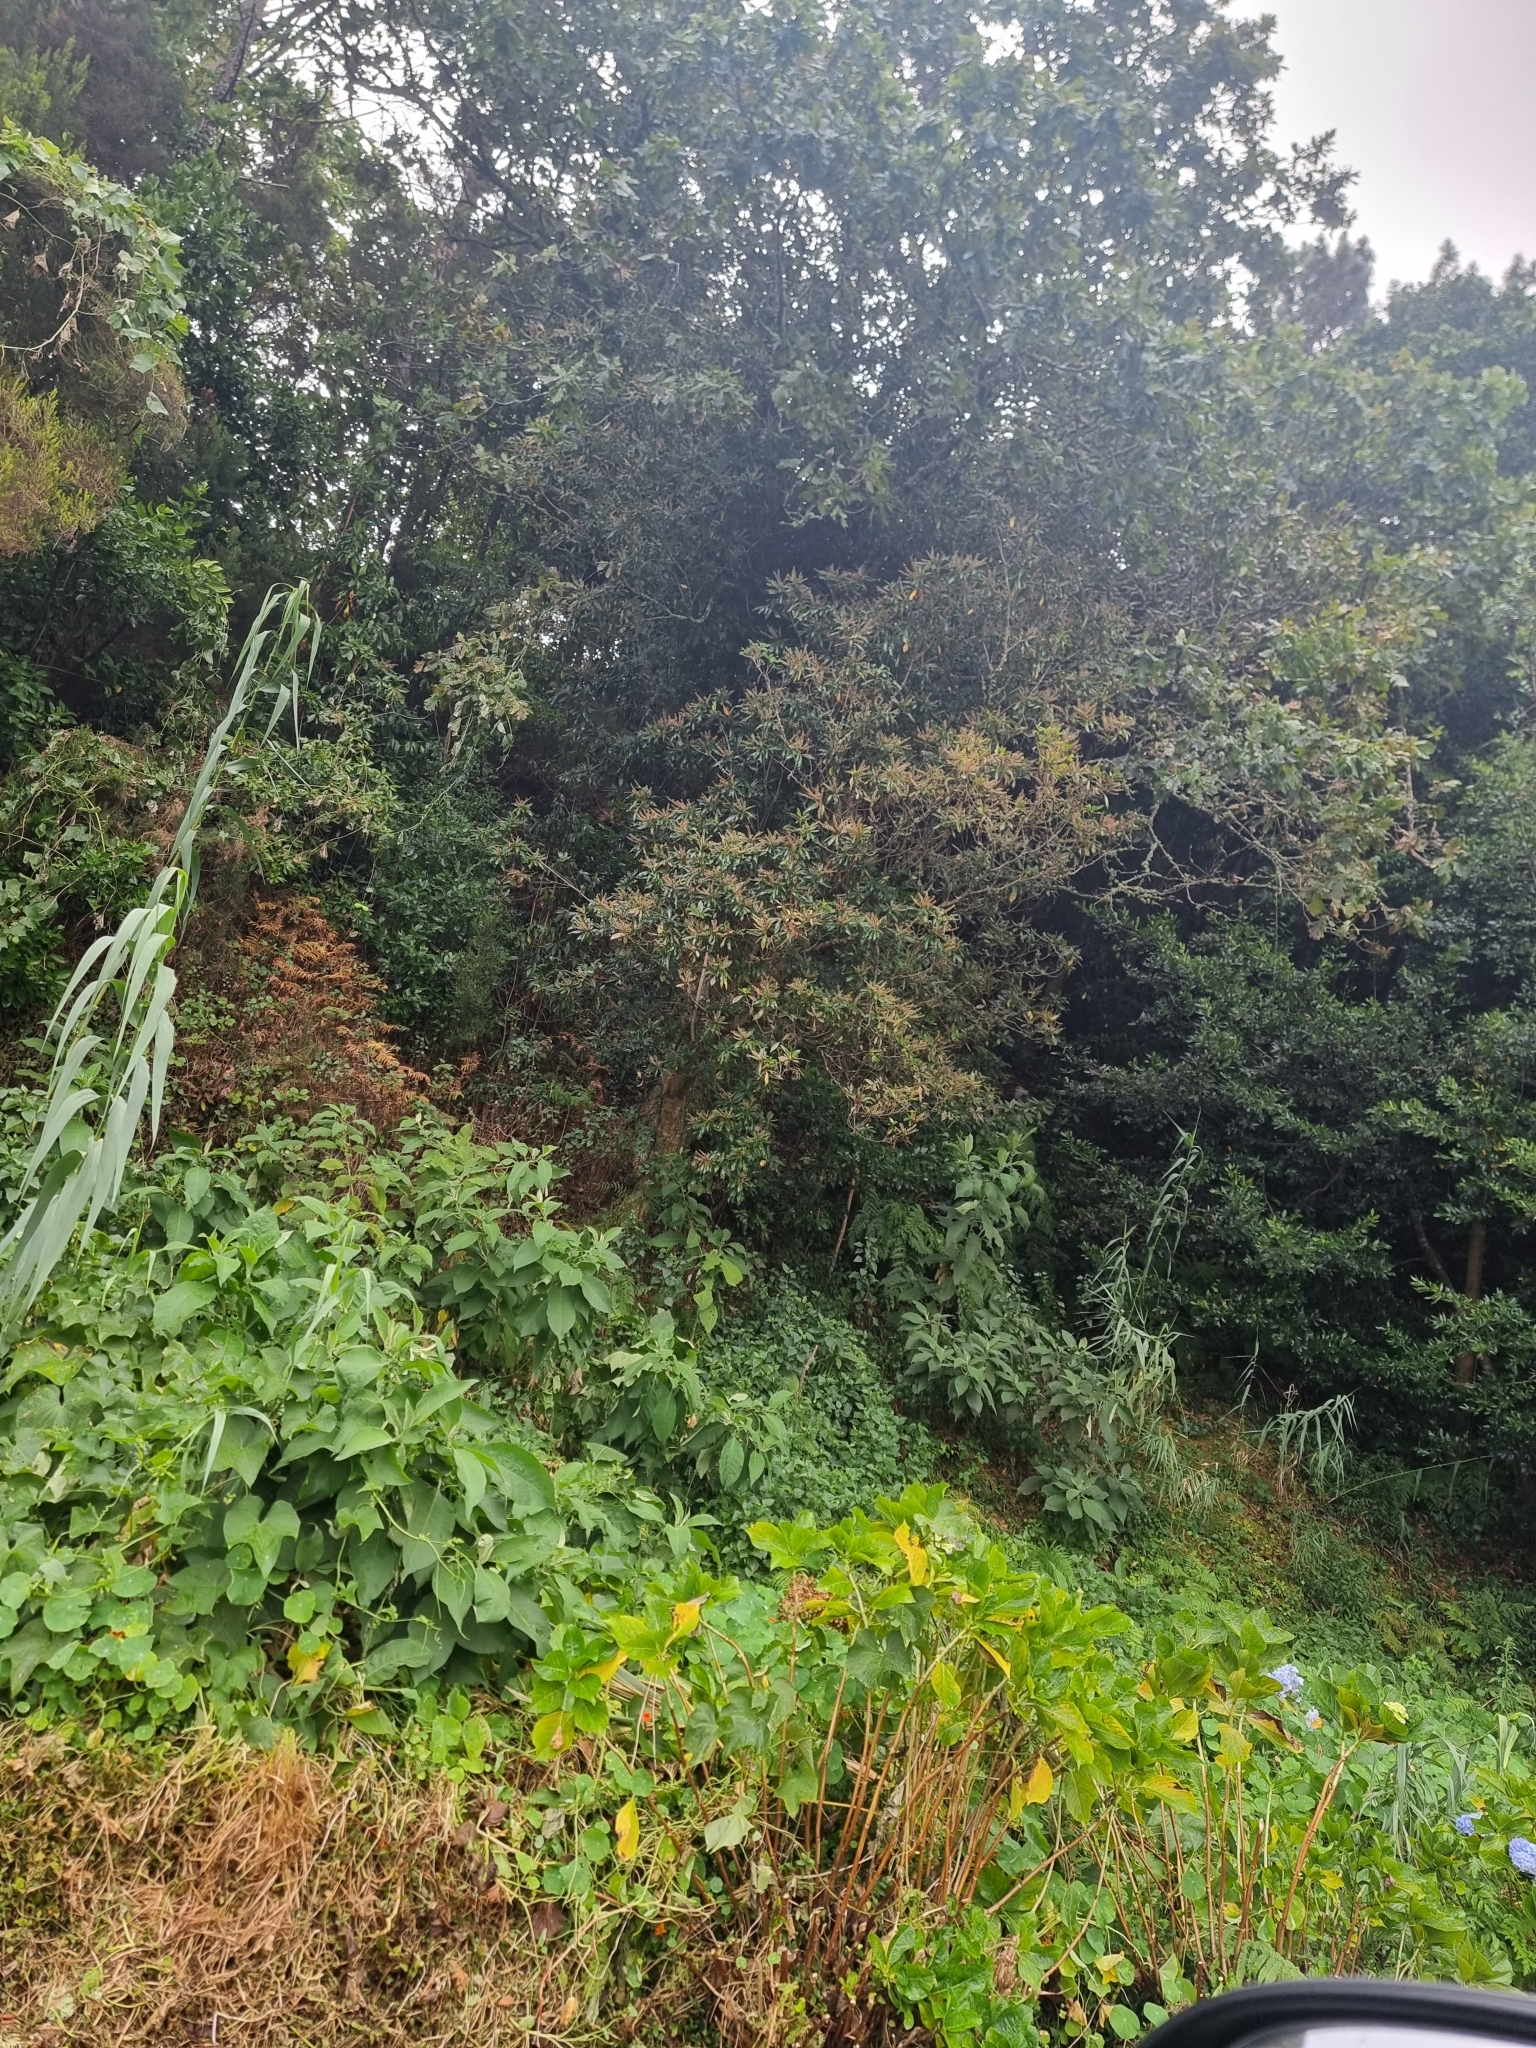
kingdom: Plantae
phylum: Tracheophyta
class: Magnoliopsida
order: Ericales
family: Clethraceae
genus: Clethra
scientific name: Clethra arborea
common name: Lily-of-the-valley-tree
